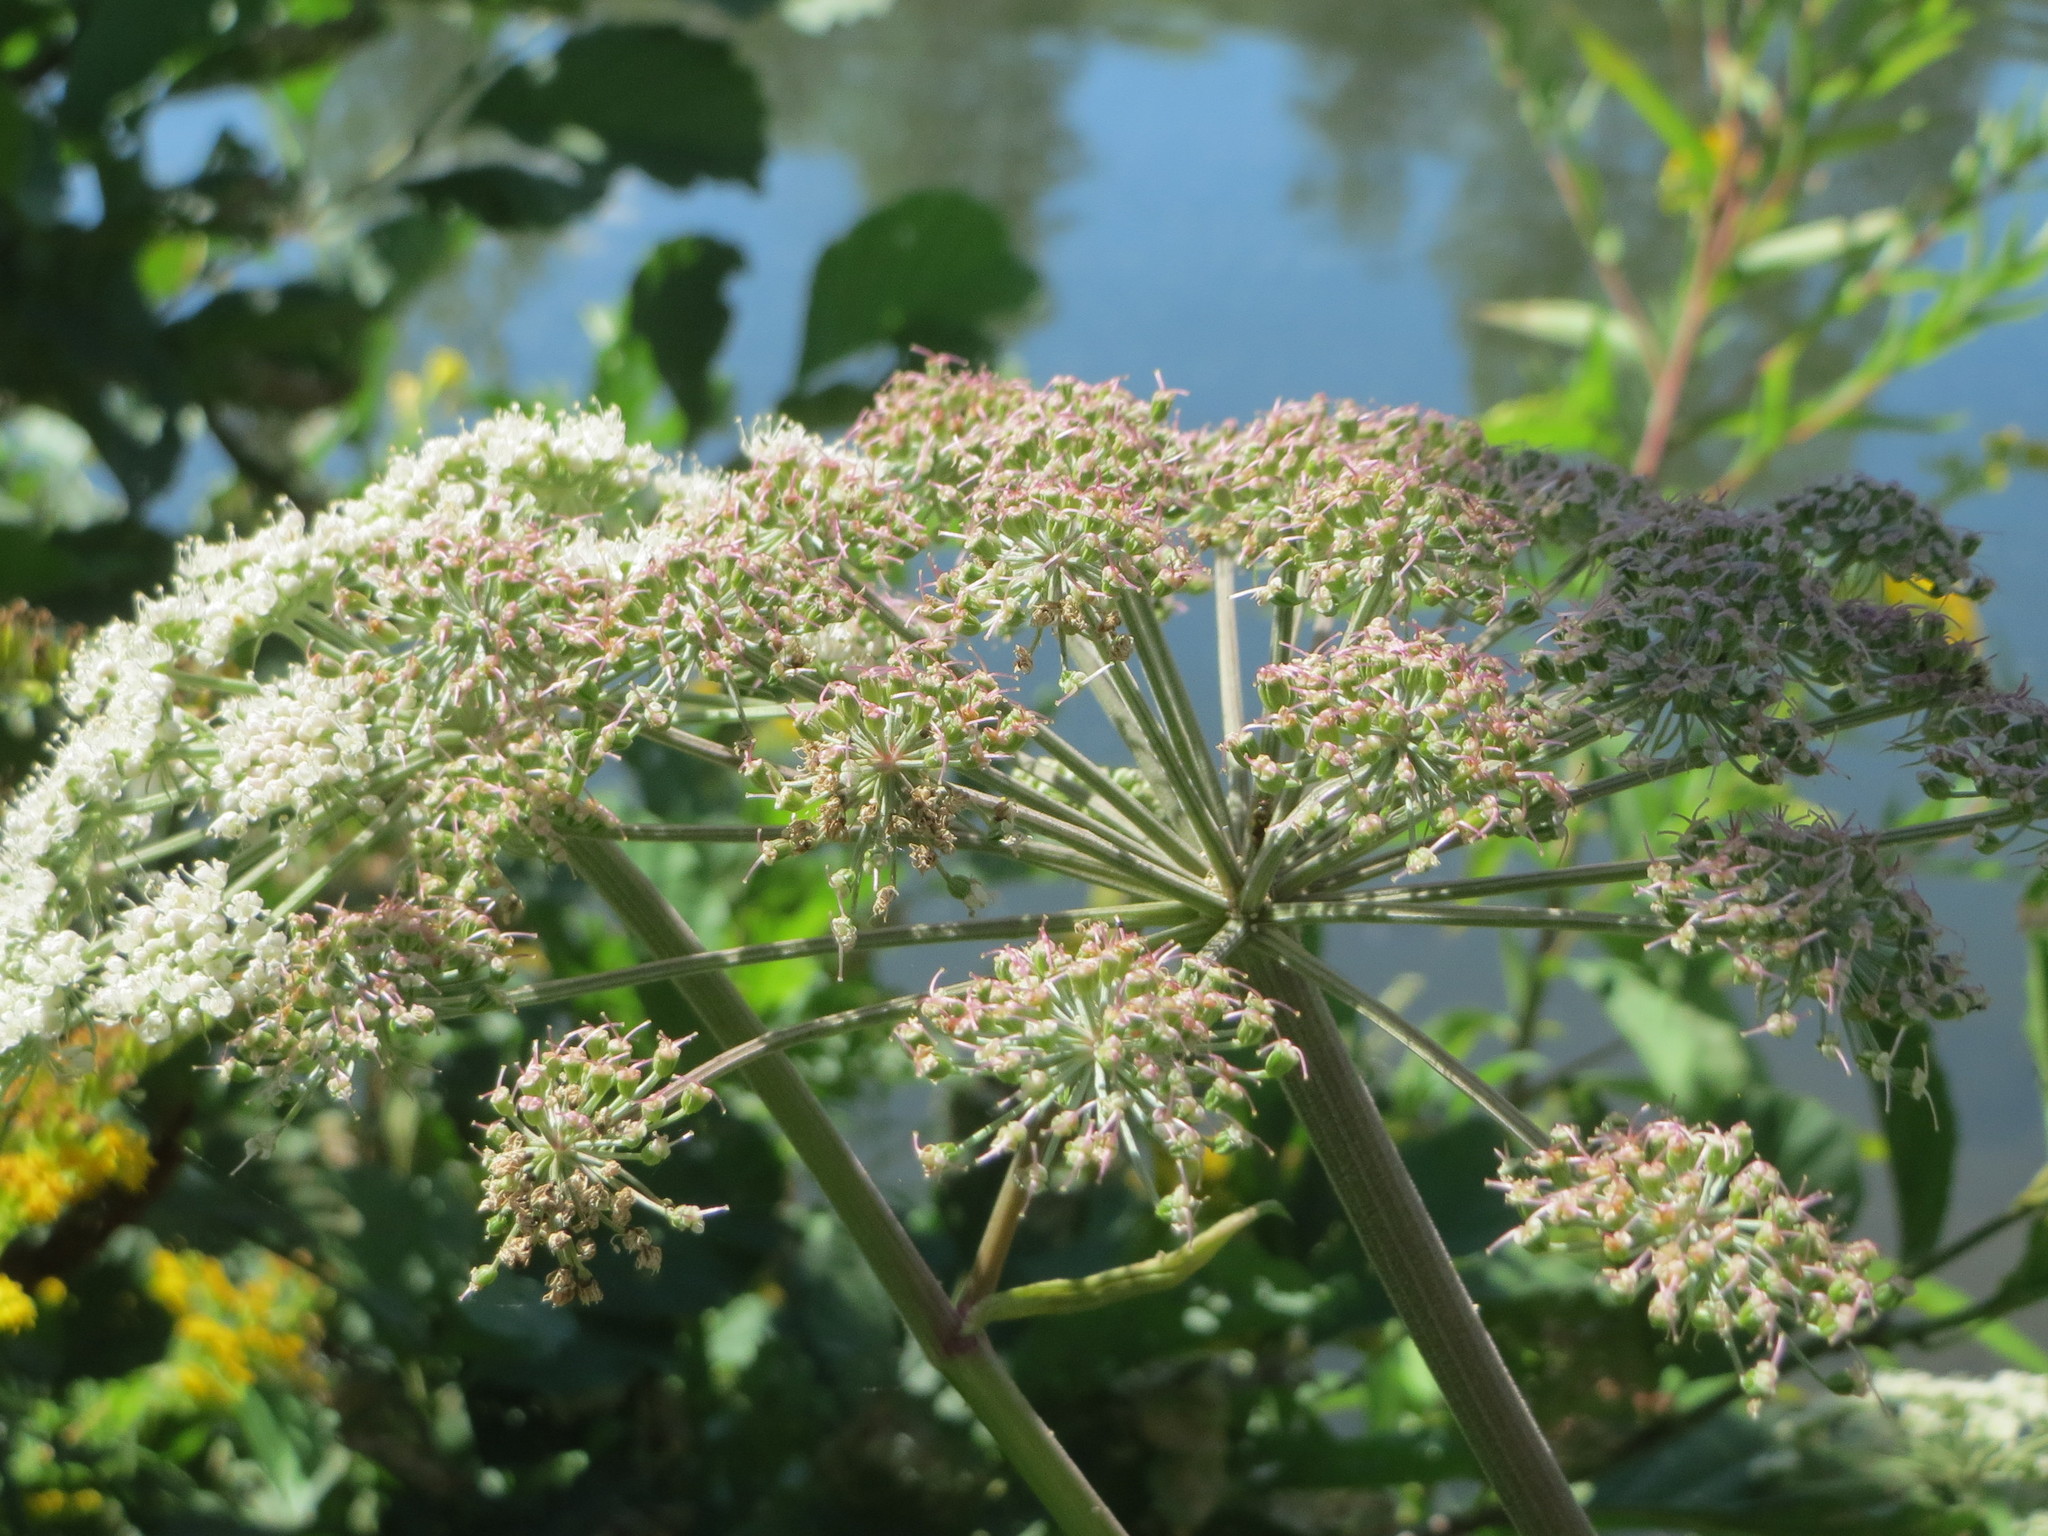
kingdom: Plantae
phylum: Tracheophyta
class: Magnoliopsida
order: Apiales
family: Apiaceae
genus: Angelica
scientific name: Angelica sylvestris
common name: Wild angelica
